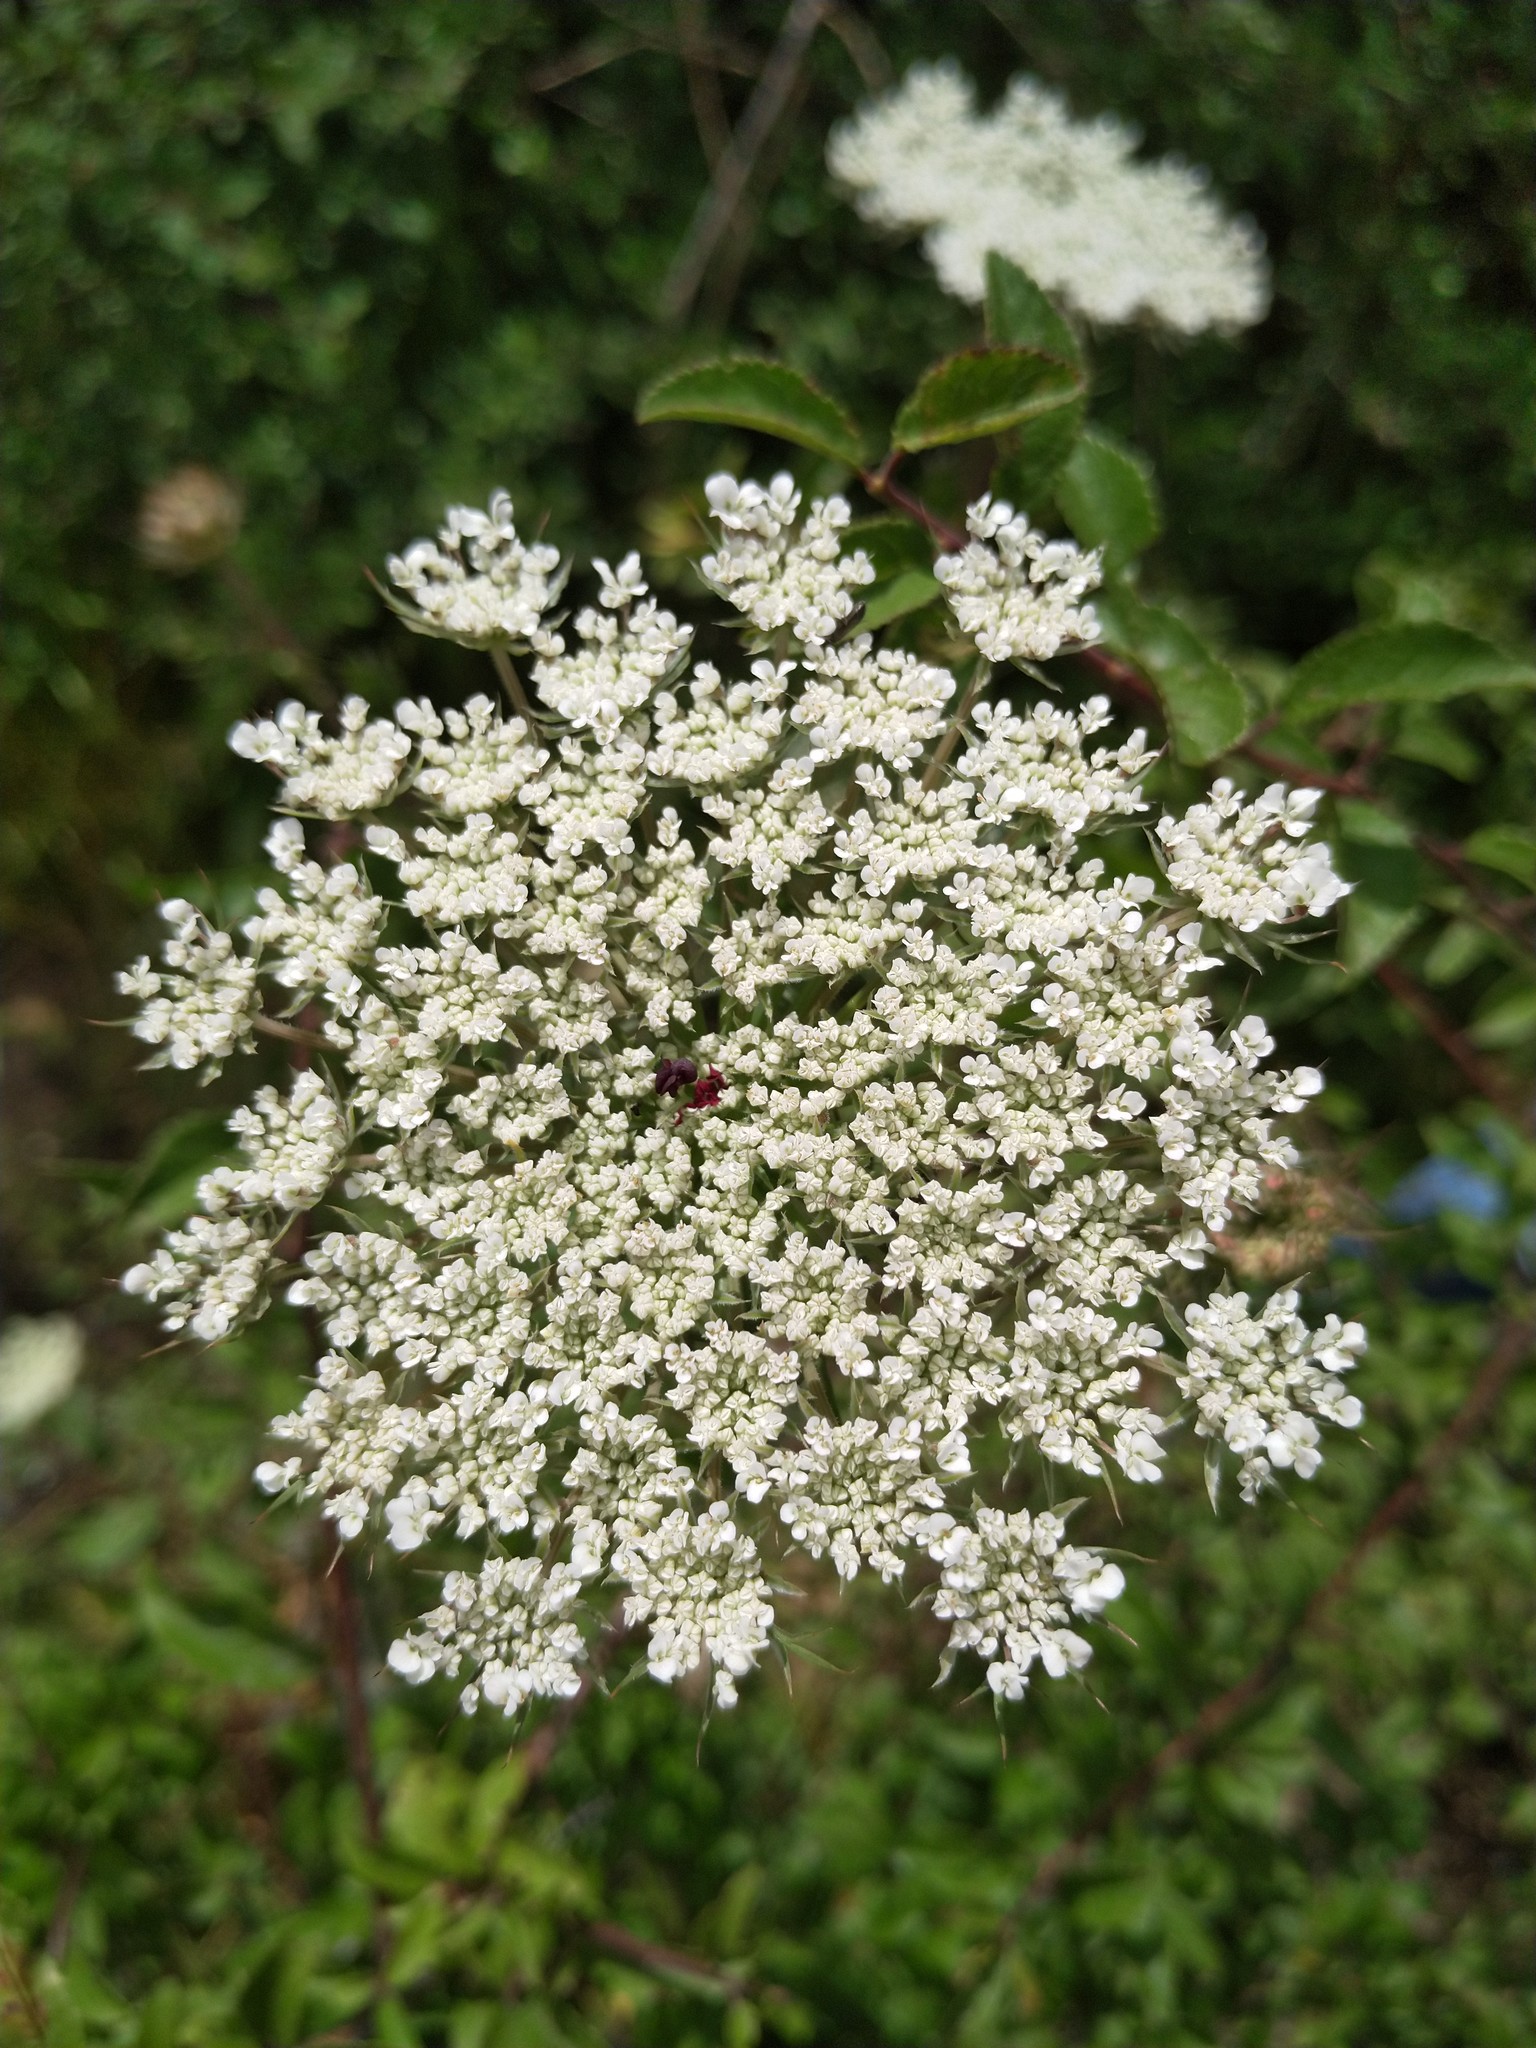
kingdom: Plantae
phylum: Tracheophyta
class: Magnoliopsida
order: Apiales
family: Apiaceae
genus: Daucus
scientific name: Daucus carota
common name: Wild carrot
